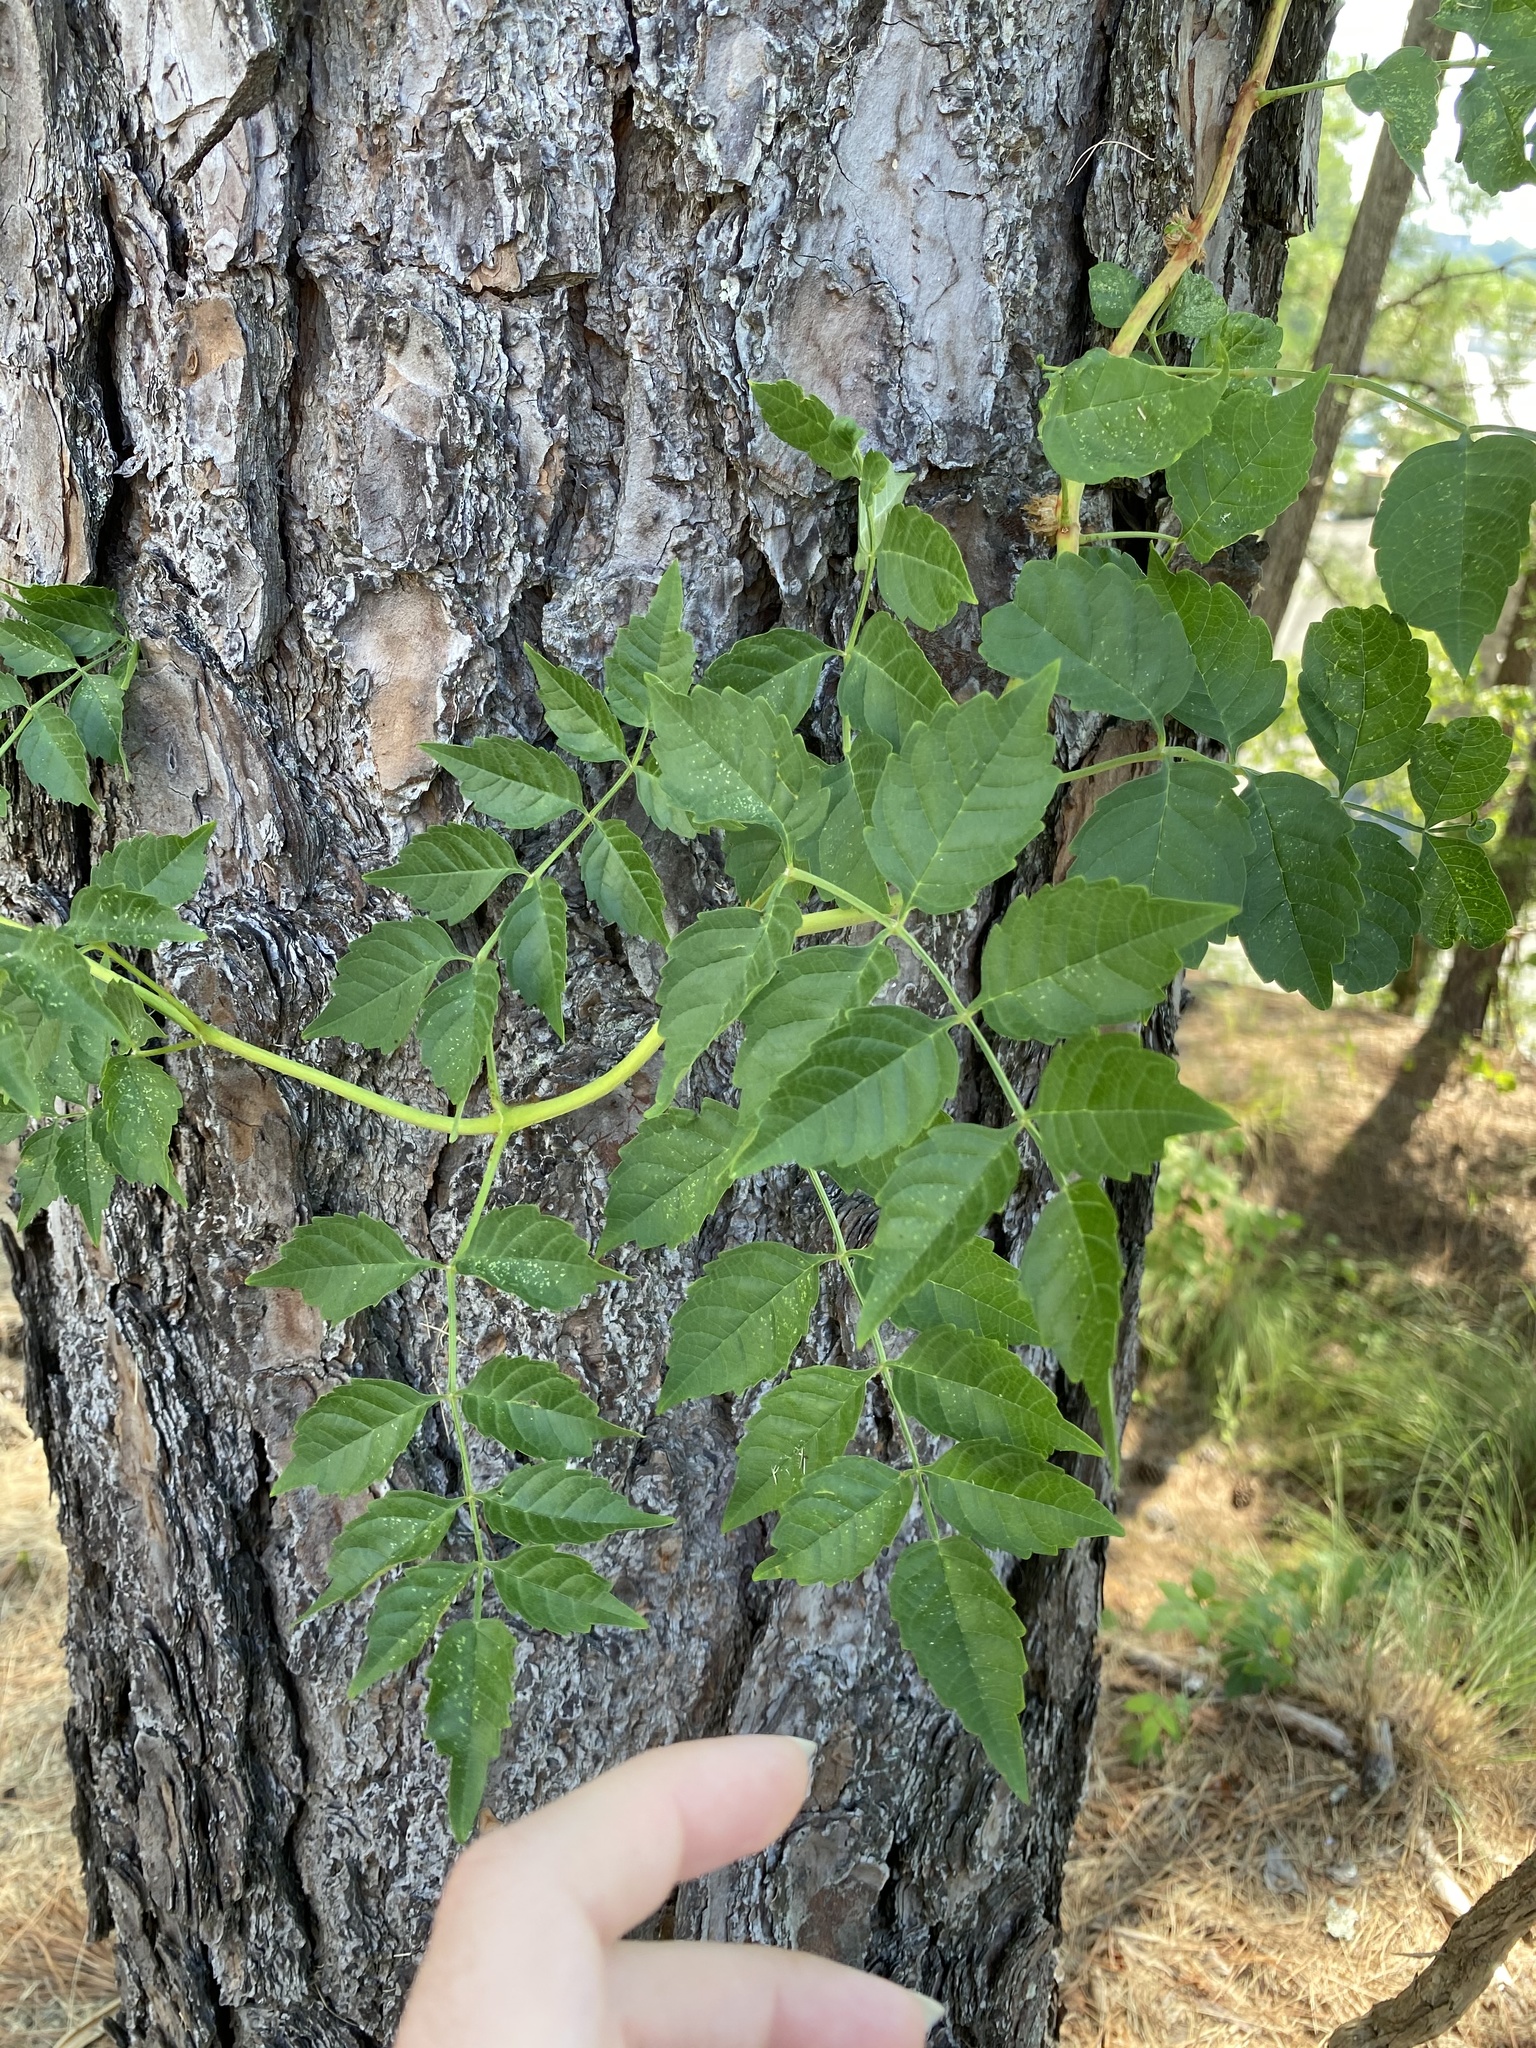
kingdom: Plantae
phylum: Tracheophyta
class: Magnoliopsida
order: Lamiales
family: Bignoniaceae
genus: Campsis
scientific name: Campsis radicans
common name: Trumpet-creeper
